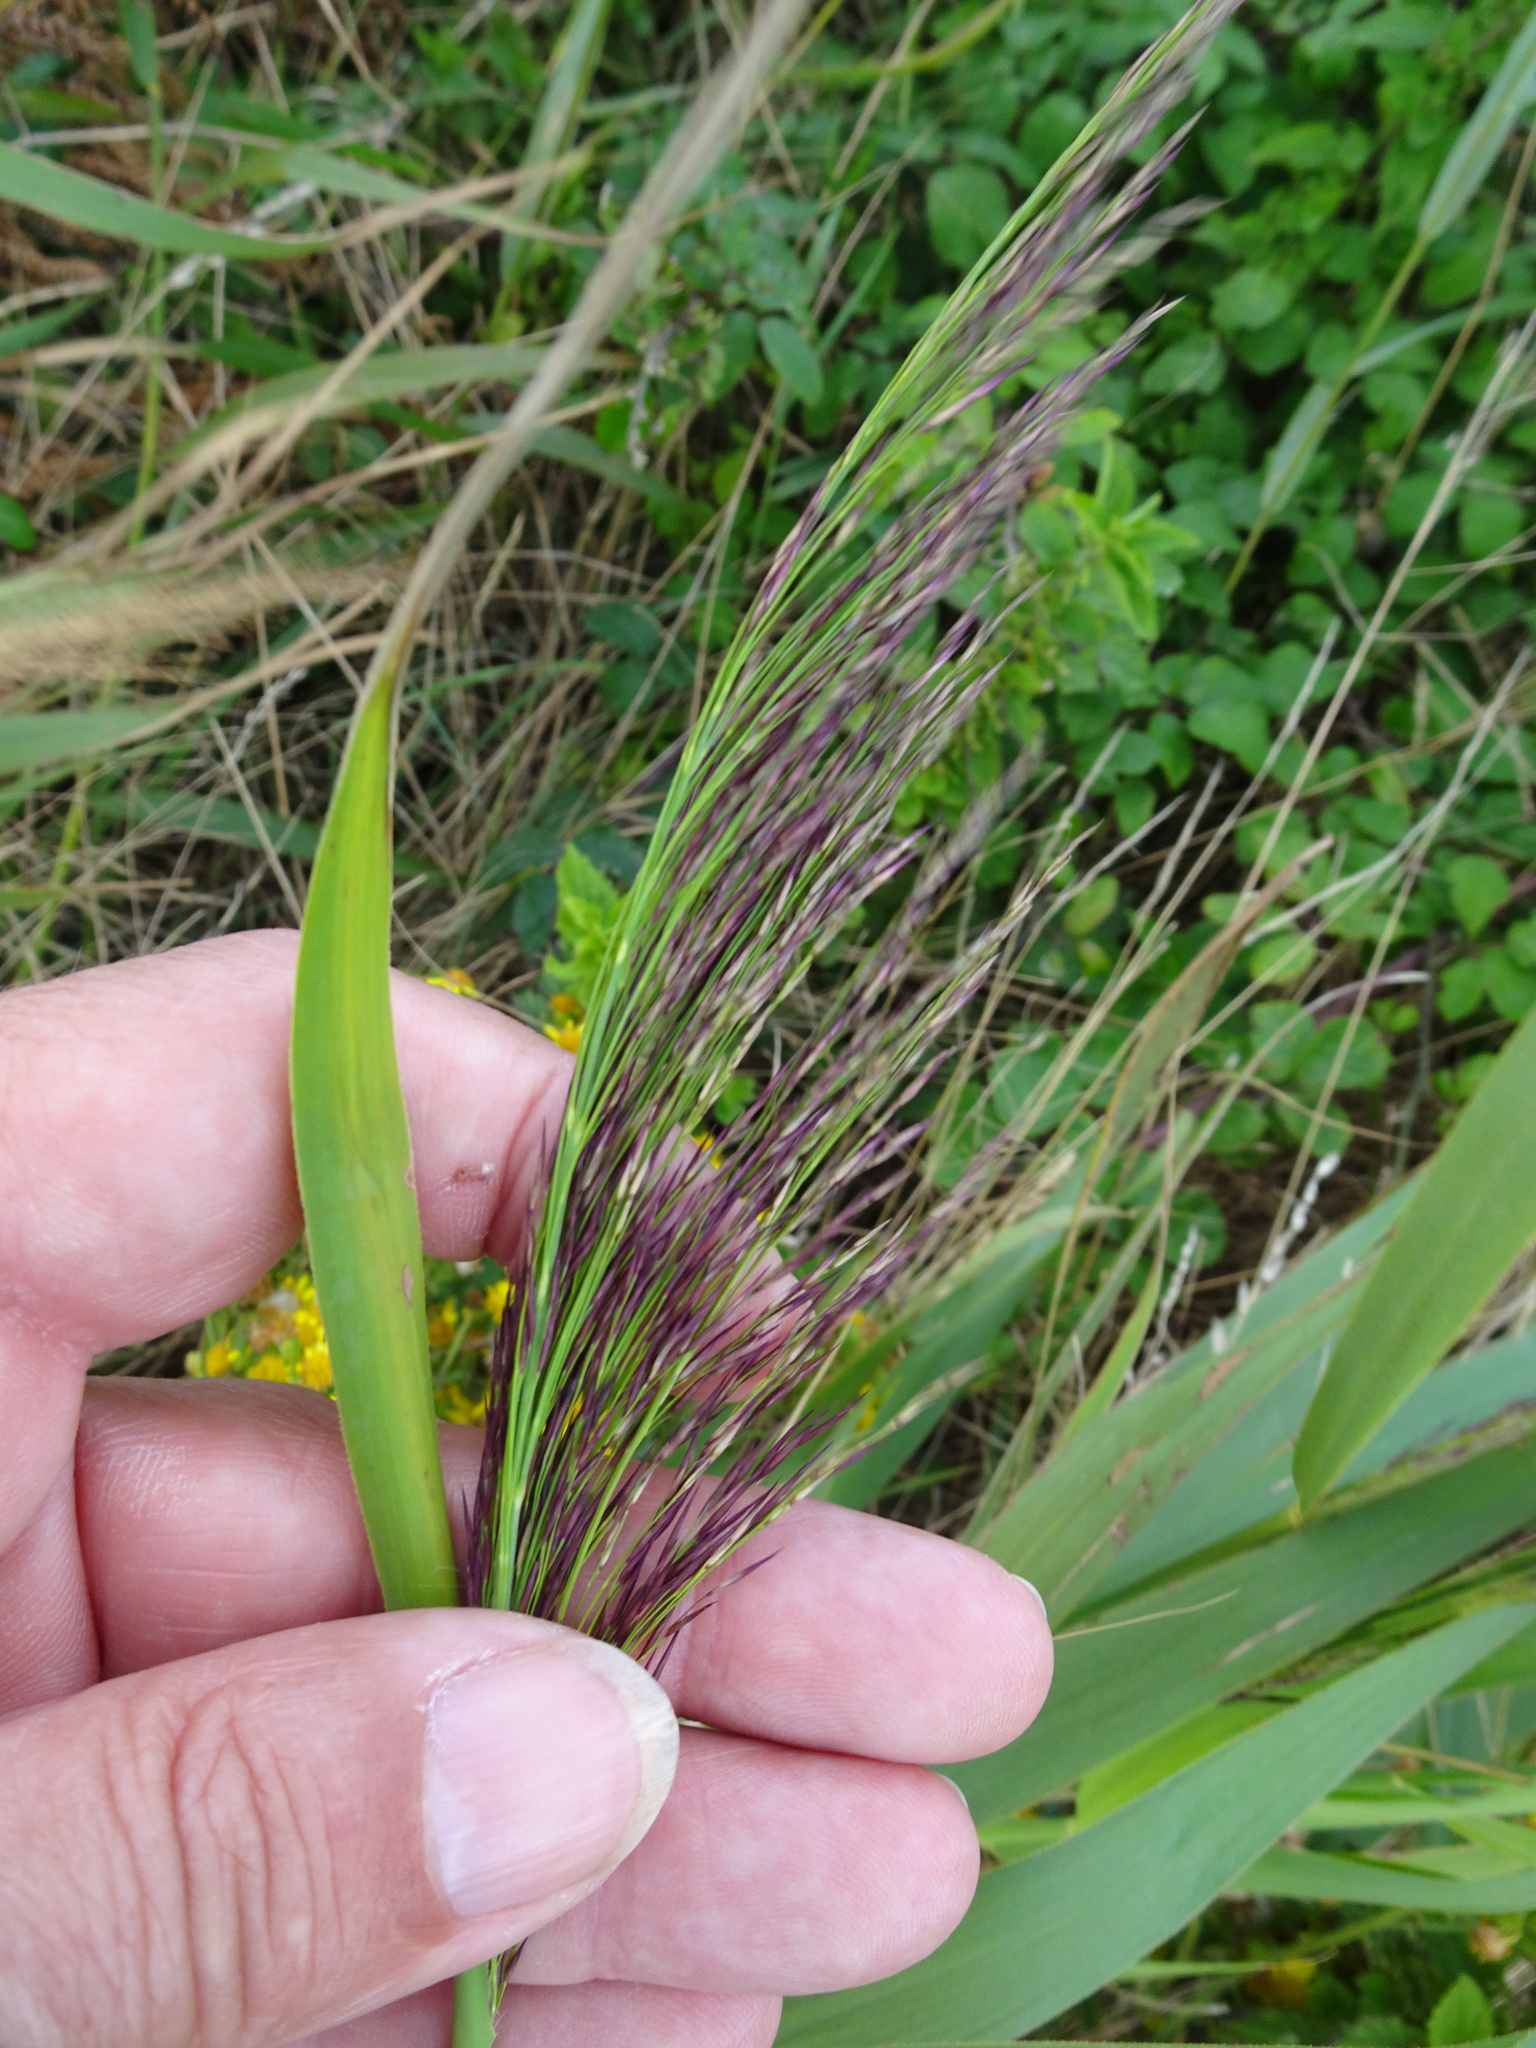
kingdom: Plantae
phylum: Tracheophyta
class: Liliopsida
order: Poales
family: Poaceae
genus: Phragmites
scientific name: Phragmites australis
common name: Common reed
